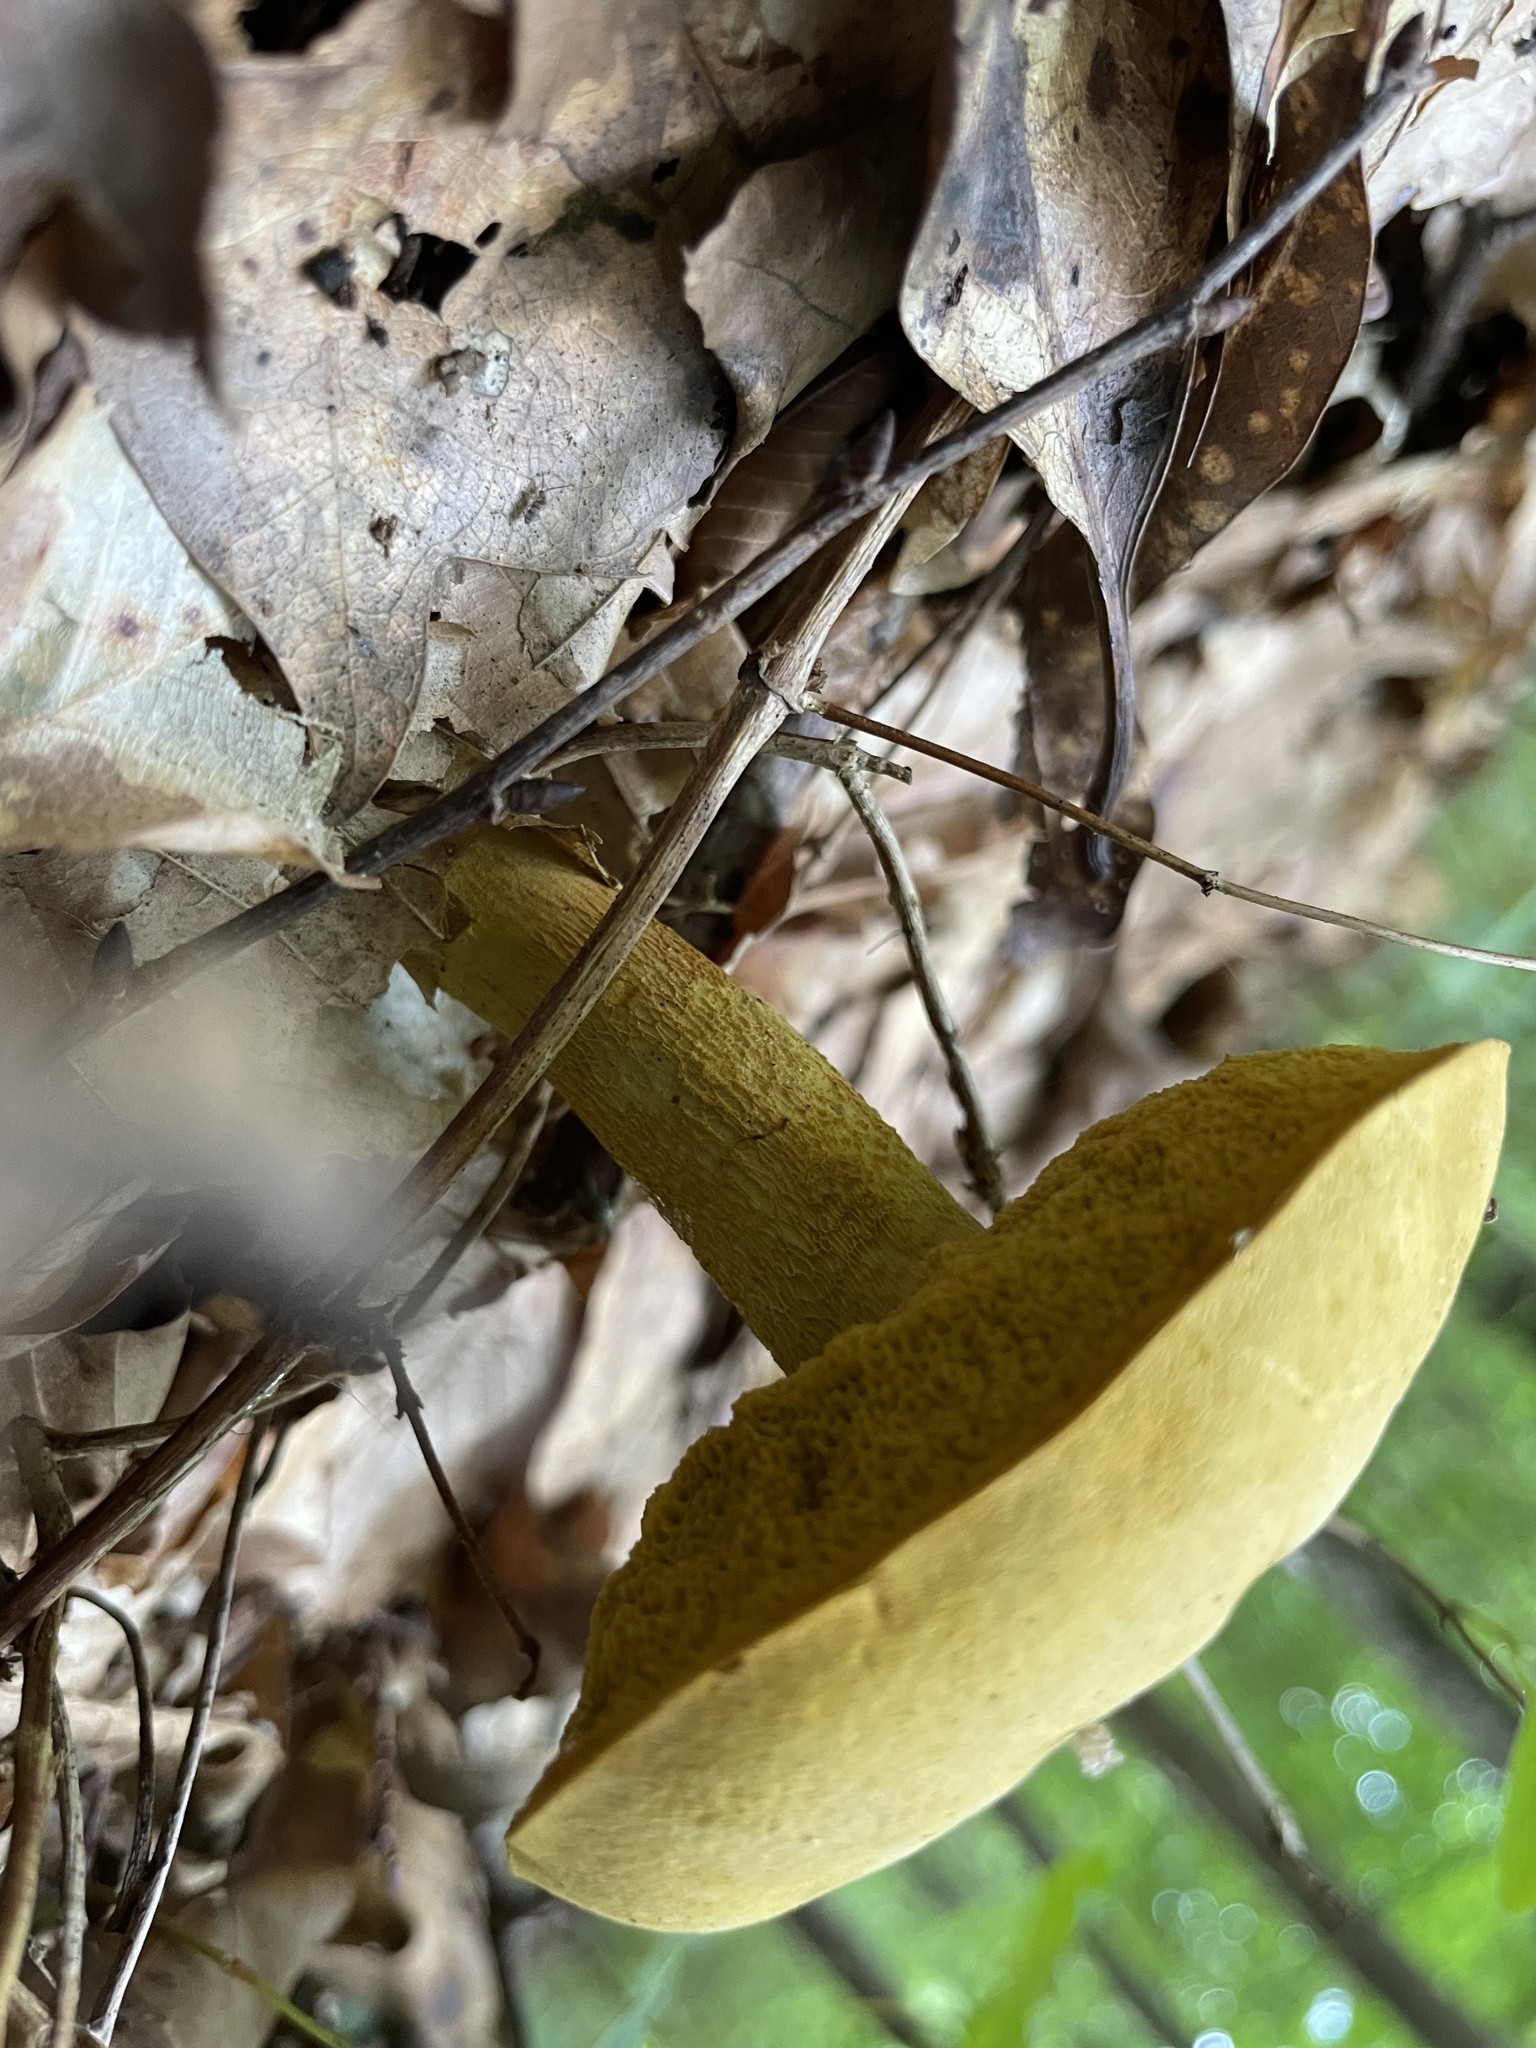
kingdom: Fungi
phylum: Basidiomycota
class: Agaricomycetes
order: Boletales
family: Boletaceae
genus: Retiboletus
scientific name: Retiboletus ornatipes
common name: Ornate-stalked bolete
